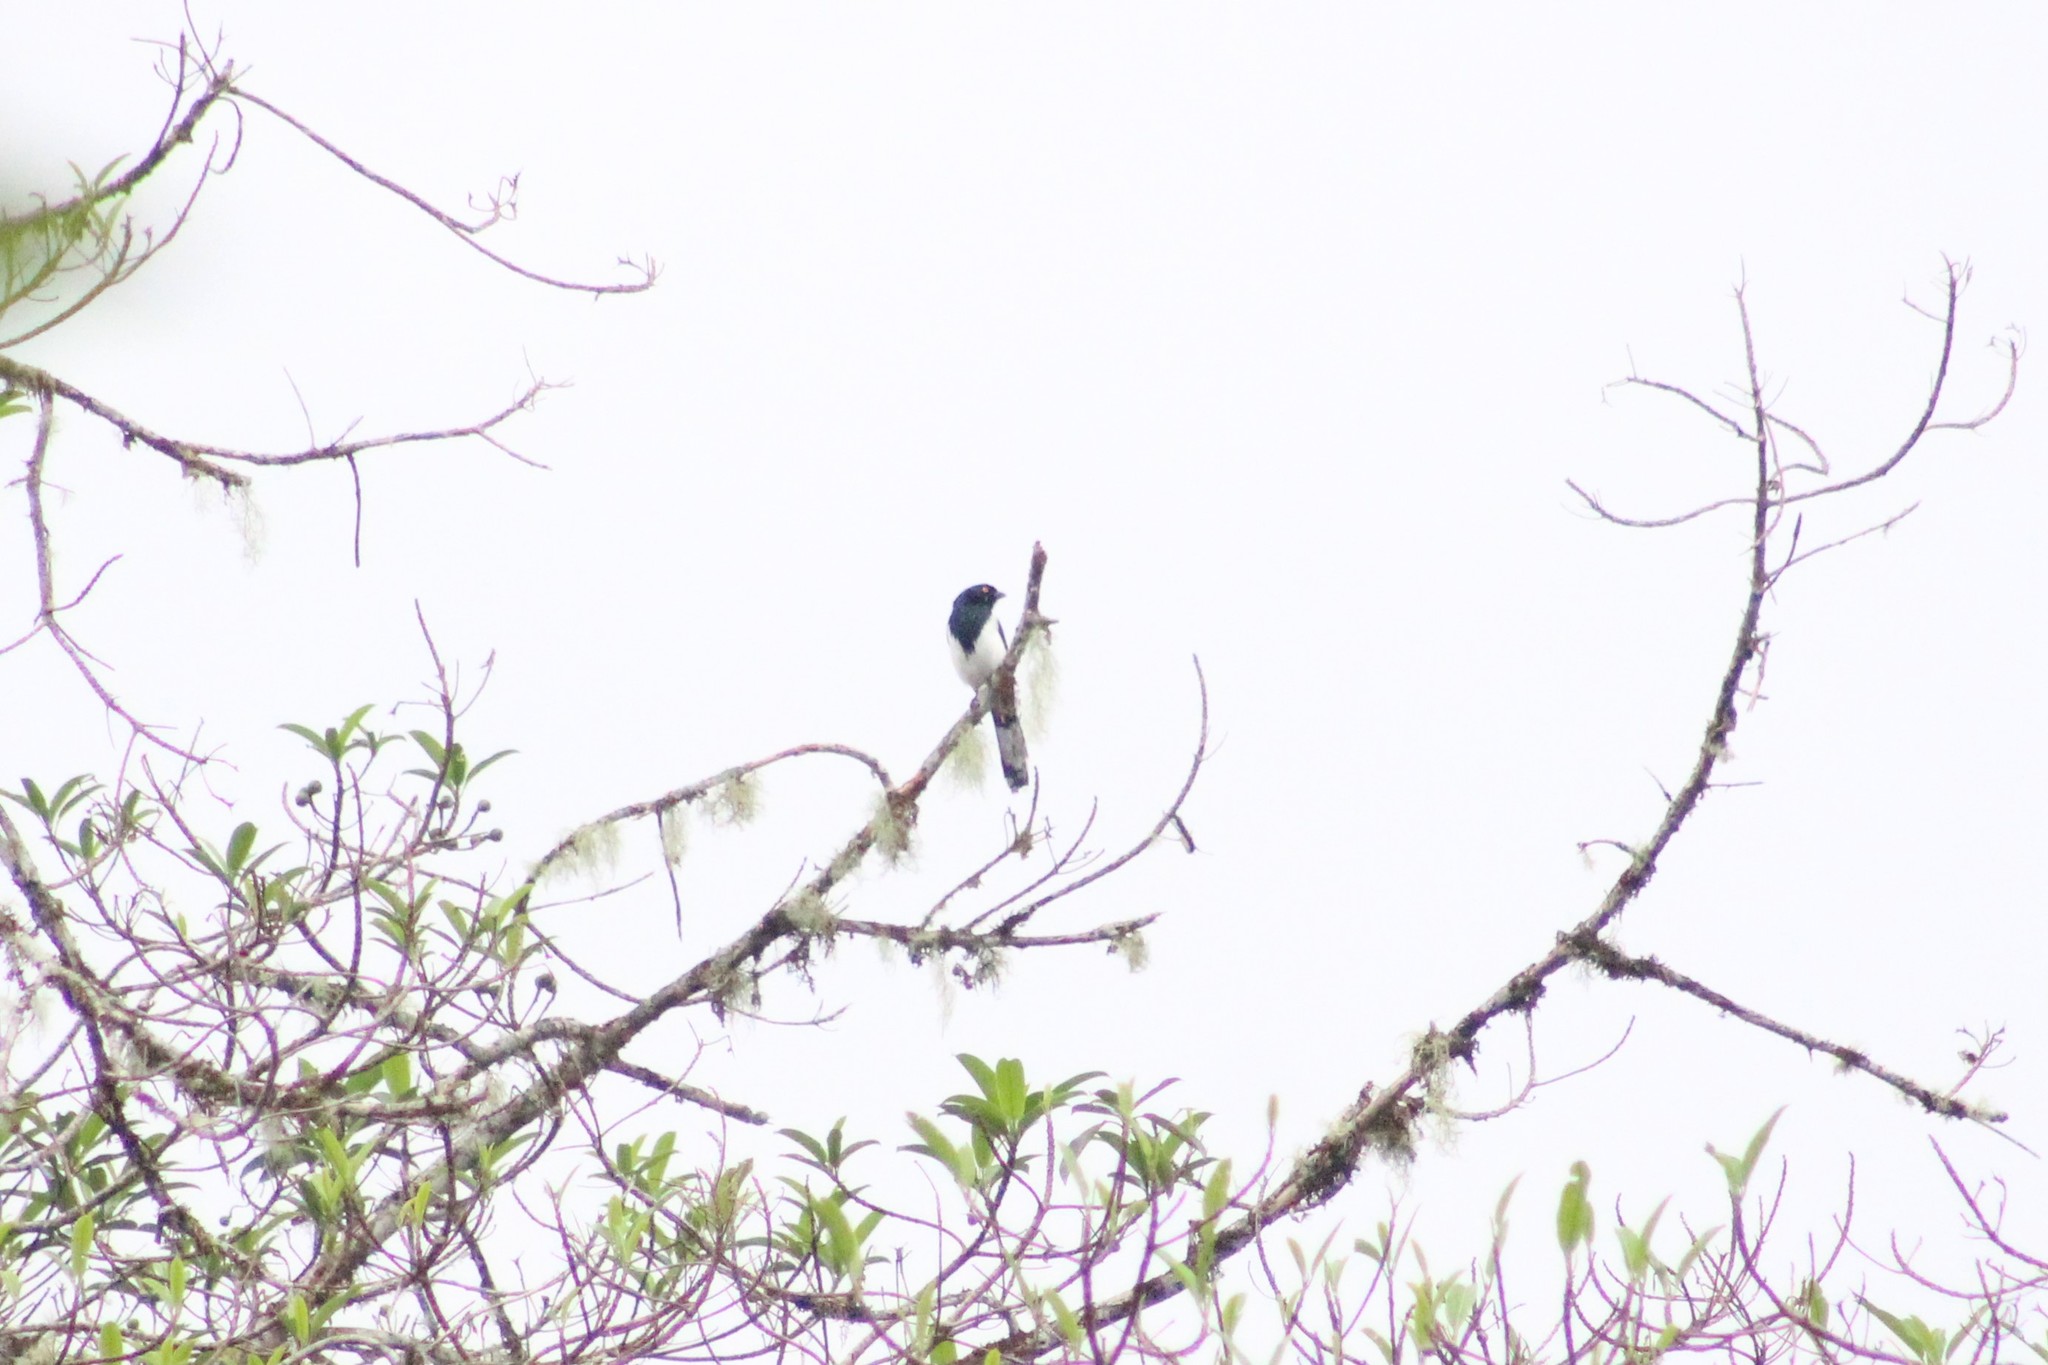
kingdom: Animalia
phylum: Chordata
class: Aves
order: Passeriformes
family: Thraupidae
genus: Cissopis
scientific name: Cissopis leverianus
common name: Magpie tanager
